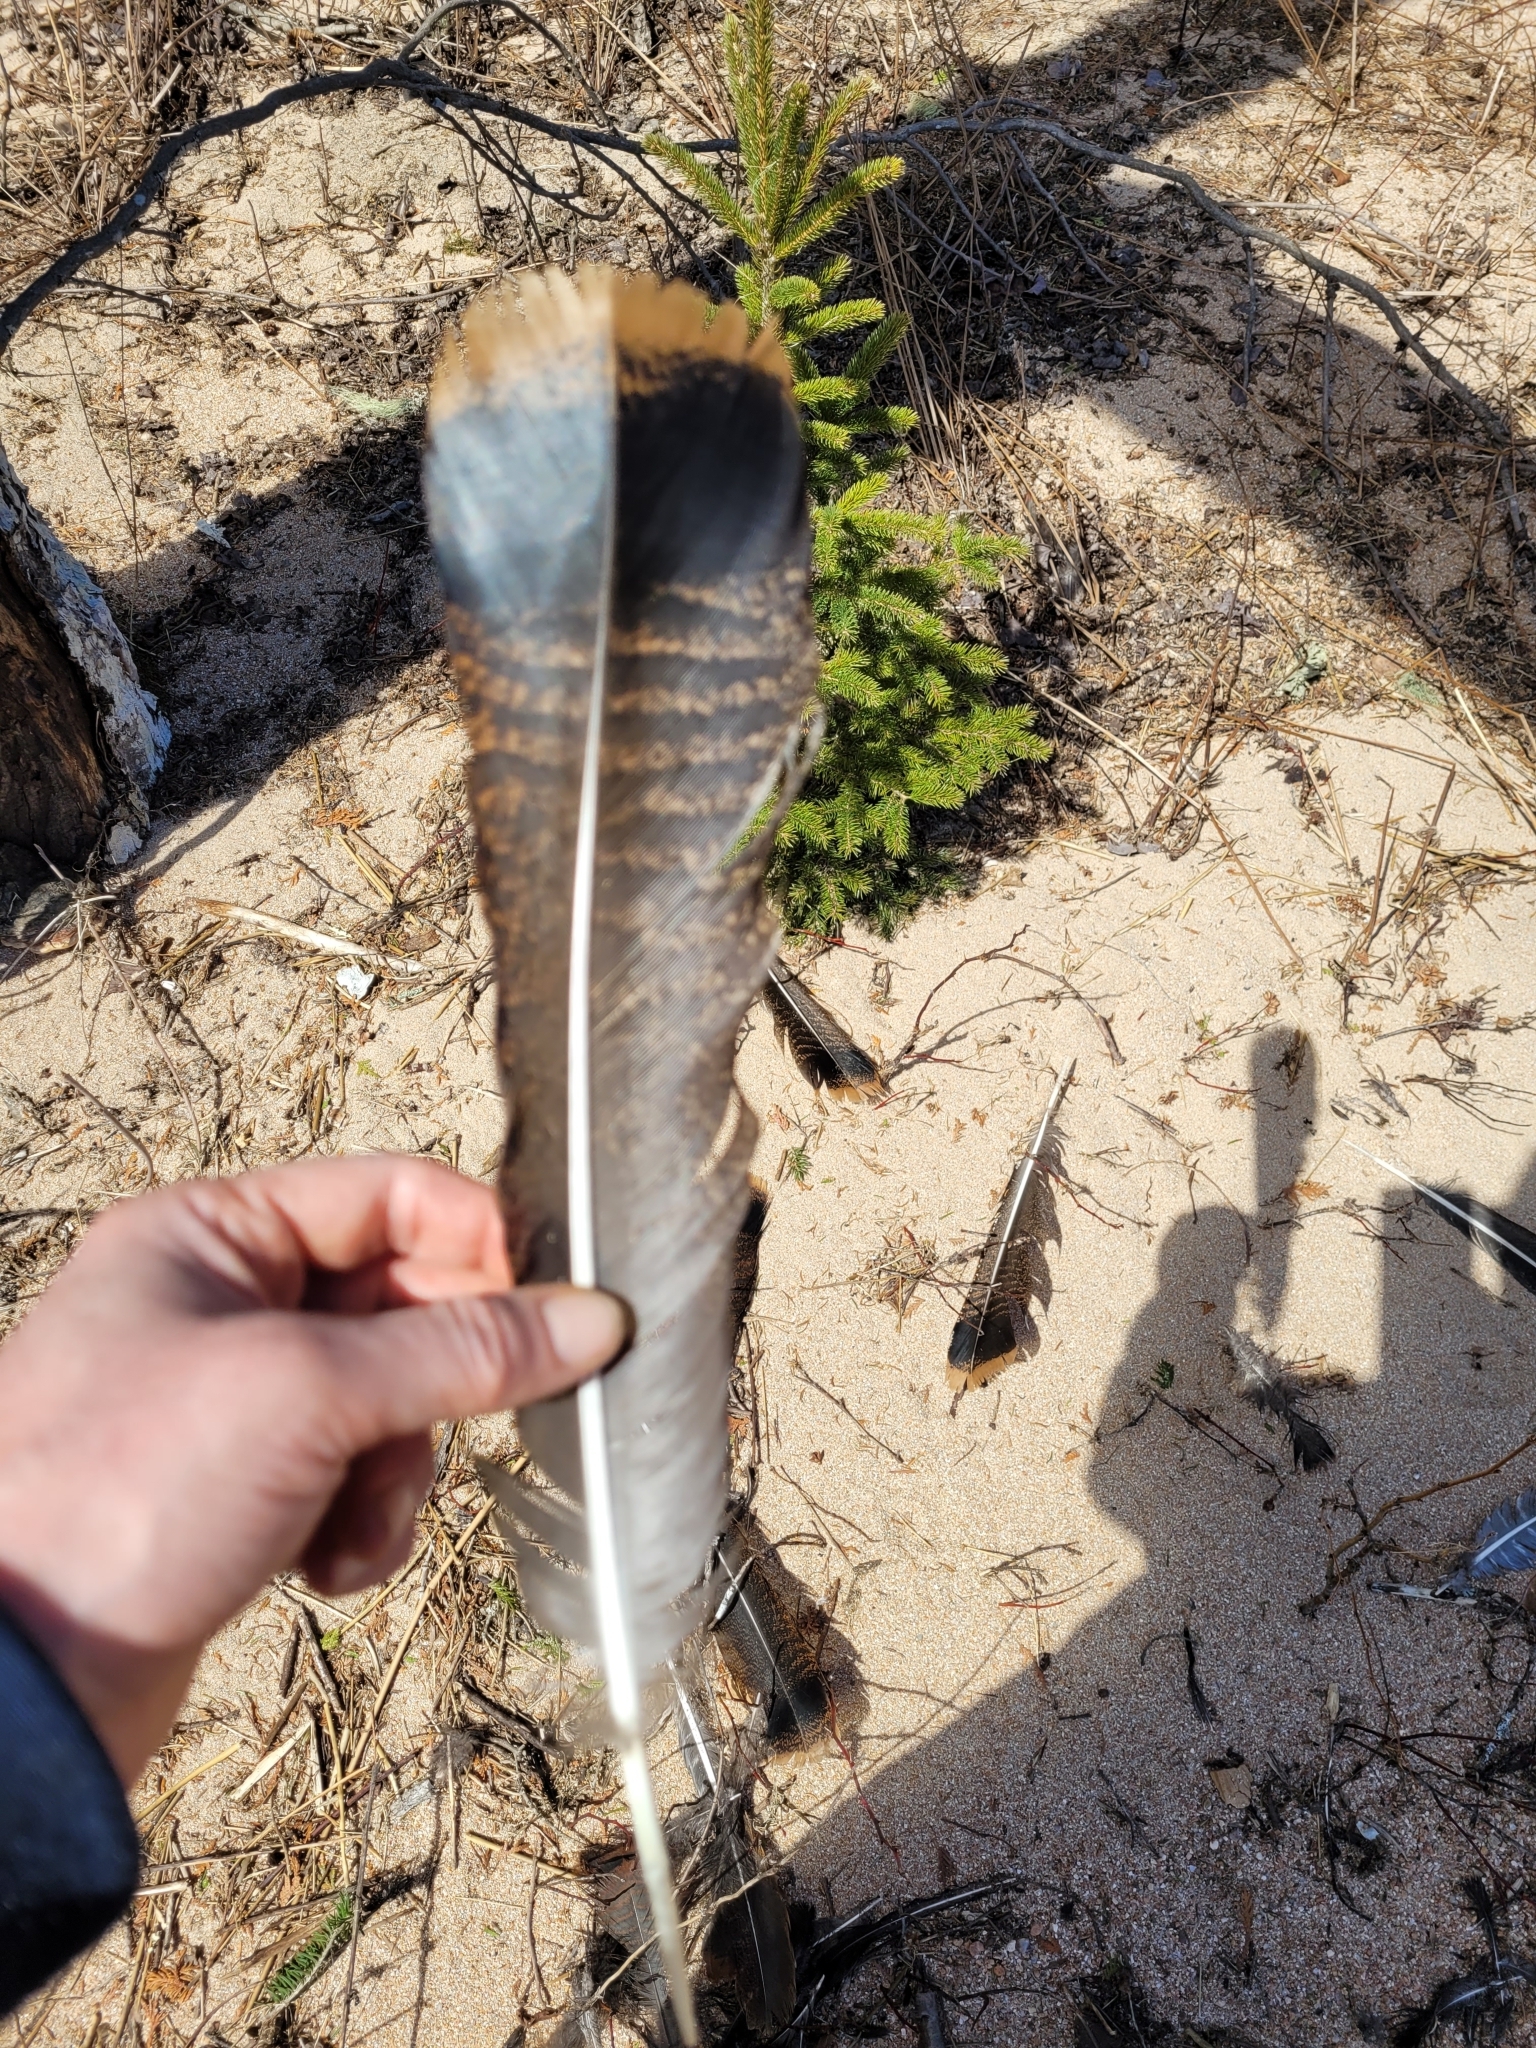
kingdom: Animalia
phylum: Chordata
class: Aves
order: Galliformes
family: Phasianidae
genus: Meleagris
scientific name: Meleagris gallopavo
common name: Wild turkey
